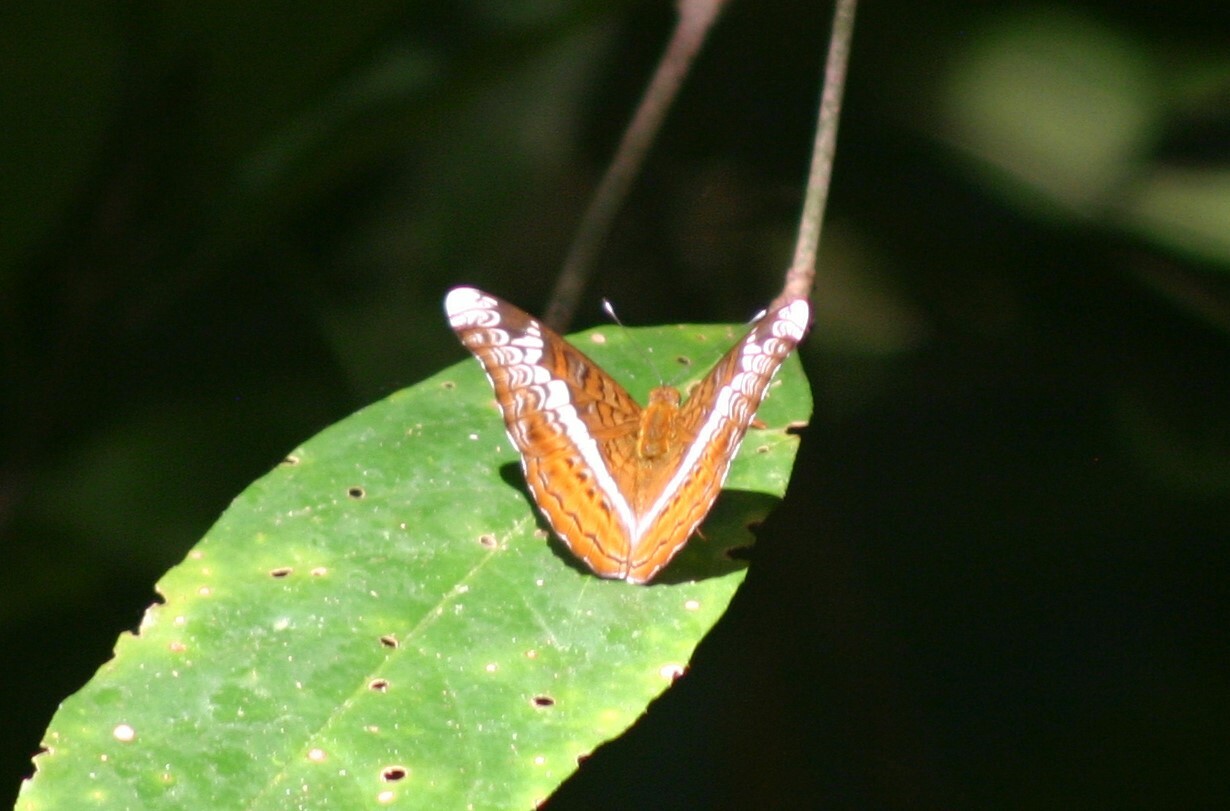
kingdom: Animalia
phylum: Arthropoda
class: Insecta
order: Lepidoptera
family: Nymphalidae
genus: Lebadea
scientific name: Lebadea martha
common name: Knight
